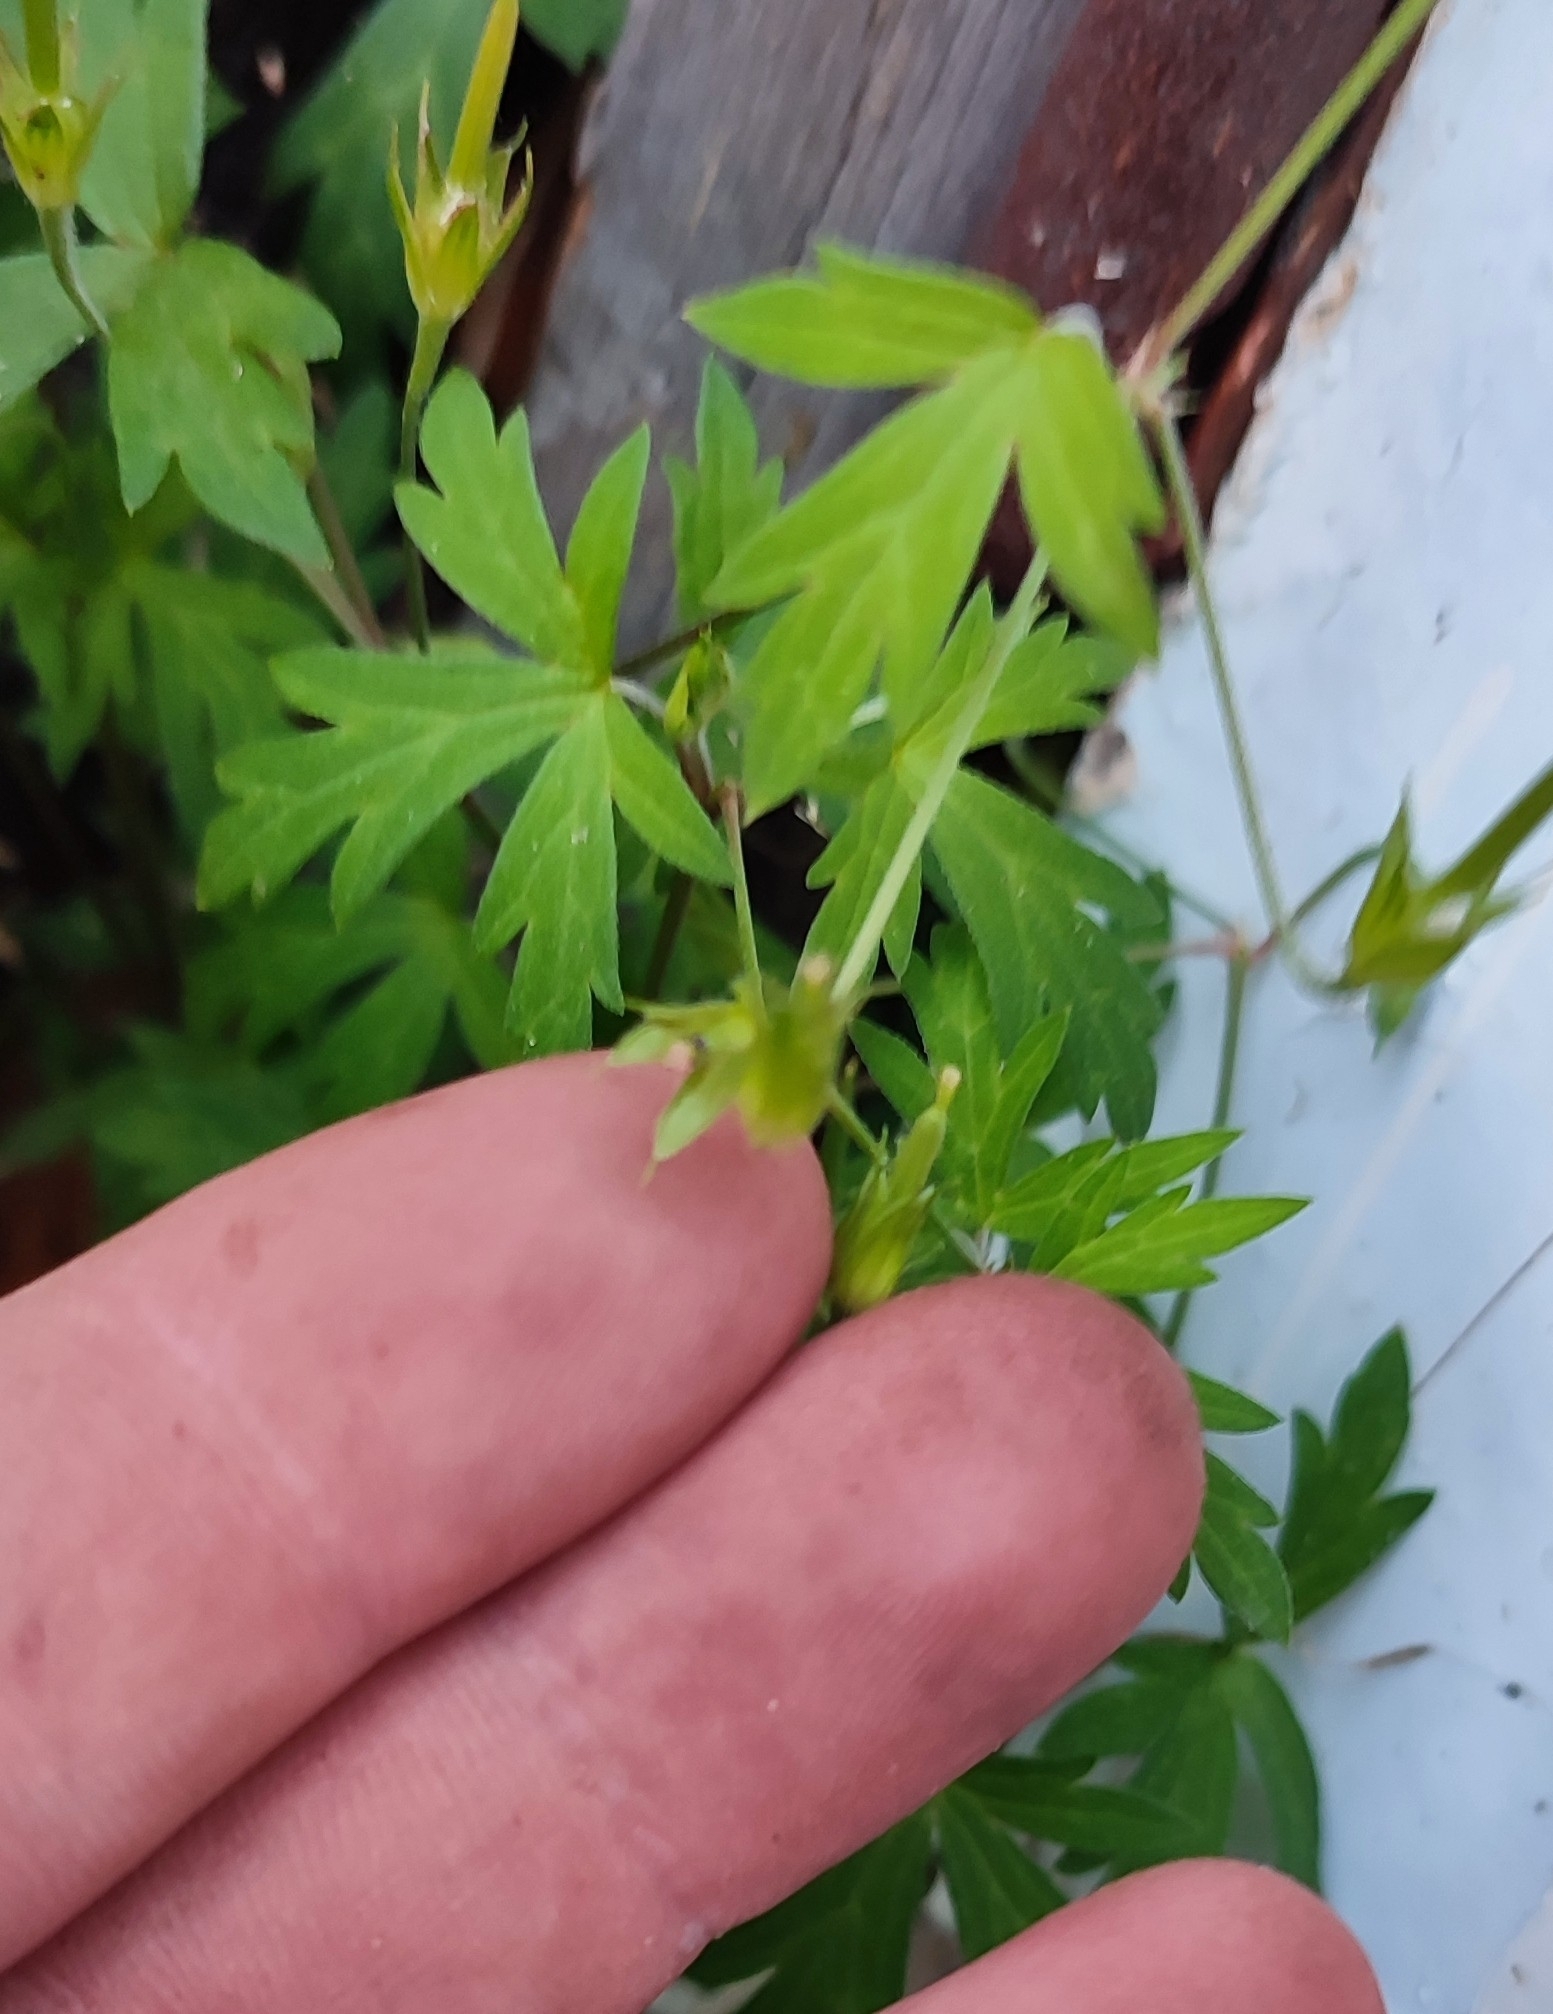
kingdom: Plantae
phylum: Tracheophyta
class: Magnoliopsida
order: Geraniales
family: Geraniaceae
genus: Geranium
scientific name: Geranium sibiricum
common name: Siberian crane's-bill
